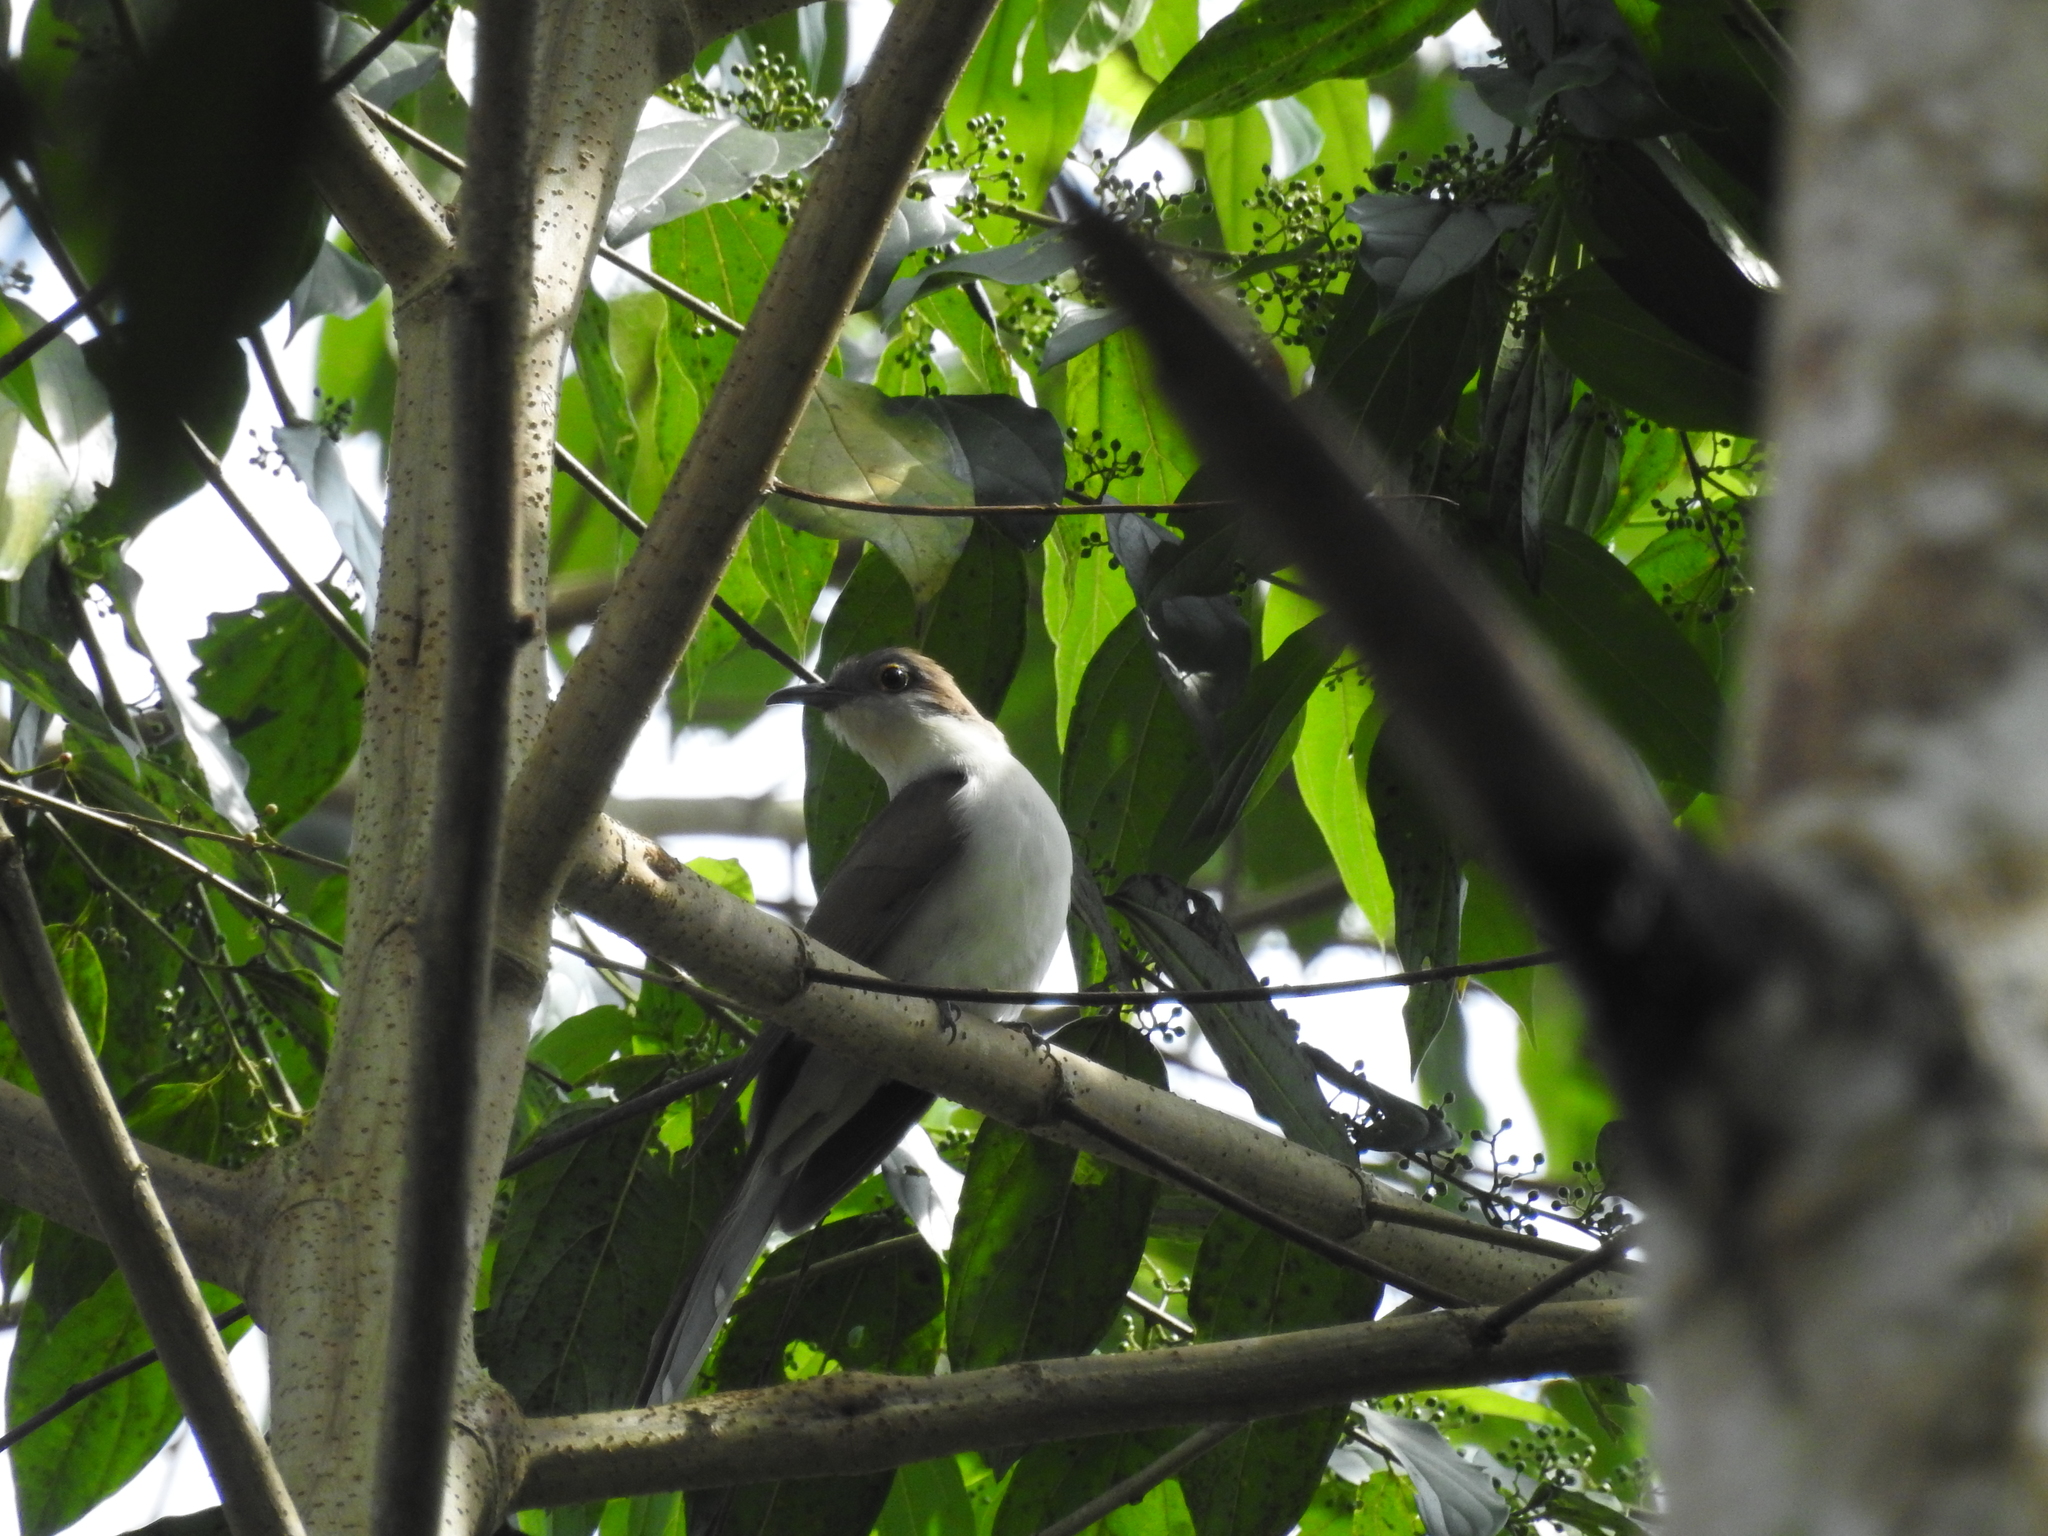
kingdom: Animalia
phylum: Chordata
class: Aves
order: Cuculiformes
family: Cuculidae
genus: Coccyzus
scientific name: Coccyzus erythropthalmus
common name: Black-billed cuckoo
